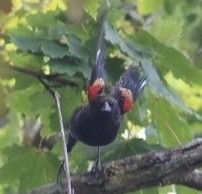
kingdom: Animalia
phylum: Chordata
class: Aves
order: Passeriformes
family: Icteridae
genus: Agelaius
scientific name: Agelaius phoeniceus
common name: Red-winged blackbird
